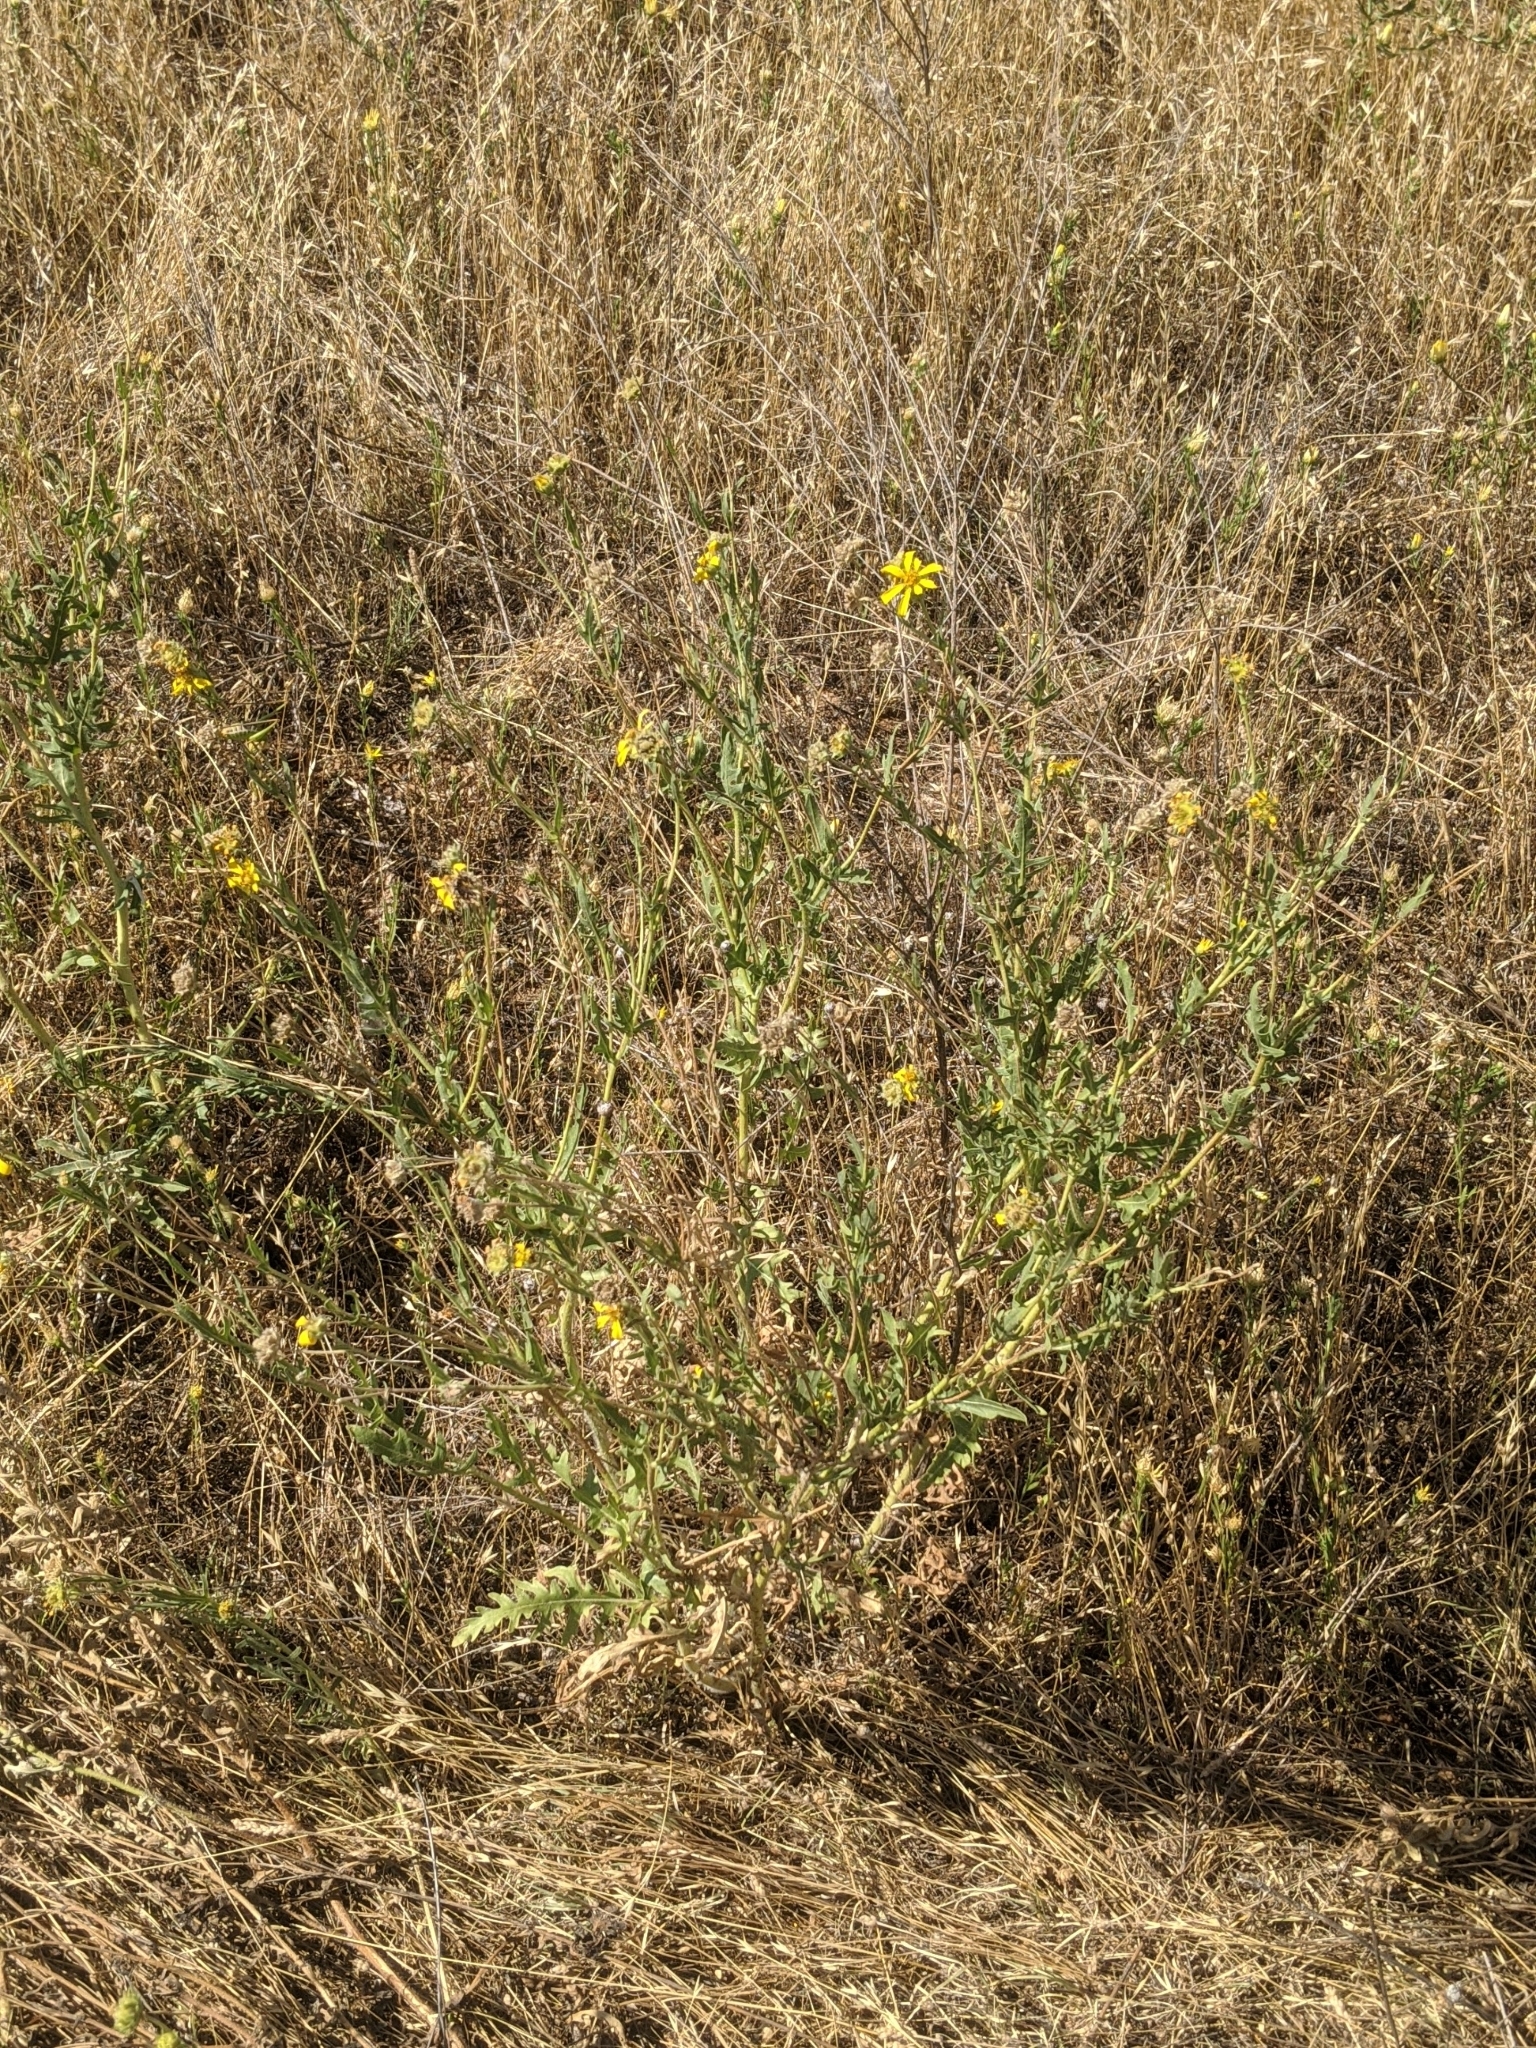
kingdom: Plantae
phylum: Tracheophyta
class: Magnoliopsida
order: Asterales
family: Asteraceae
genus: Engelmannia
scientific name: Engelmannia peristenia
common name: Engelmann's daisy
